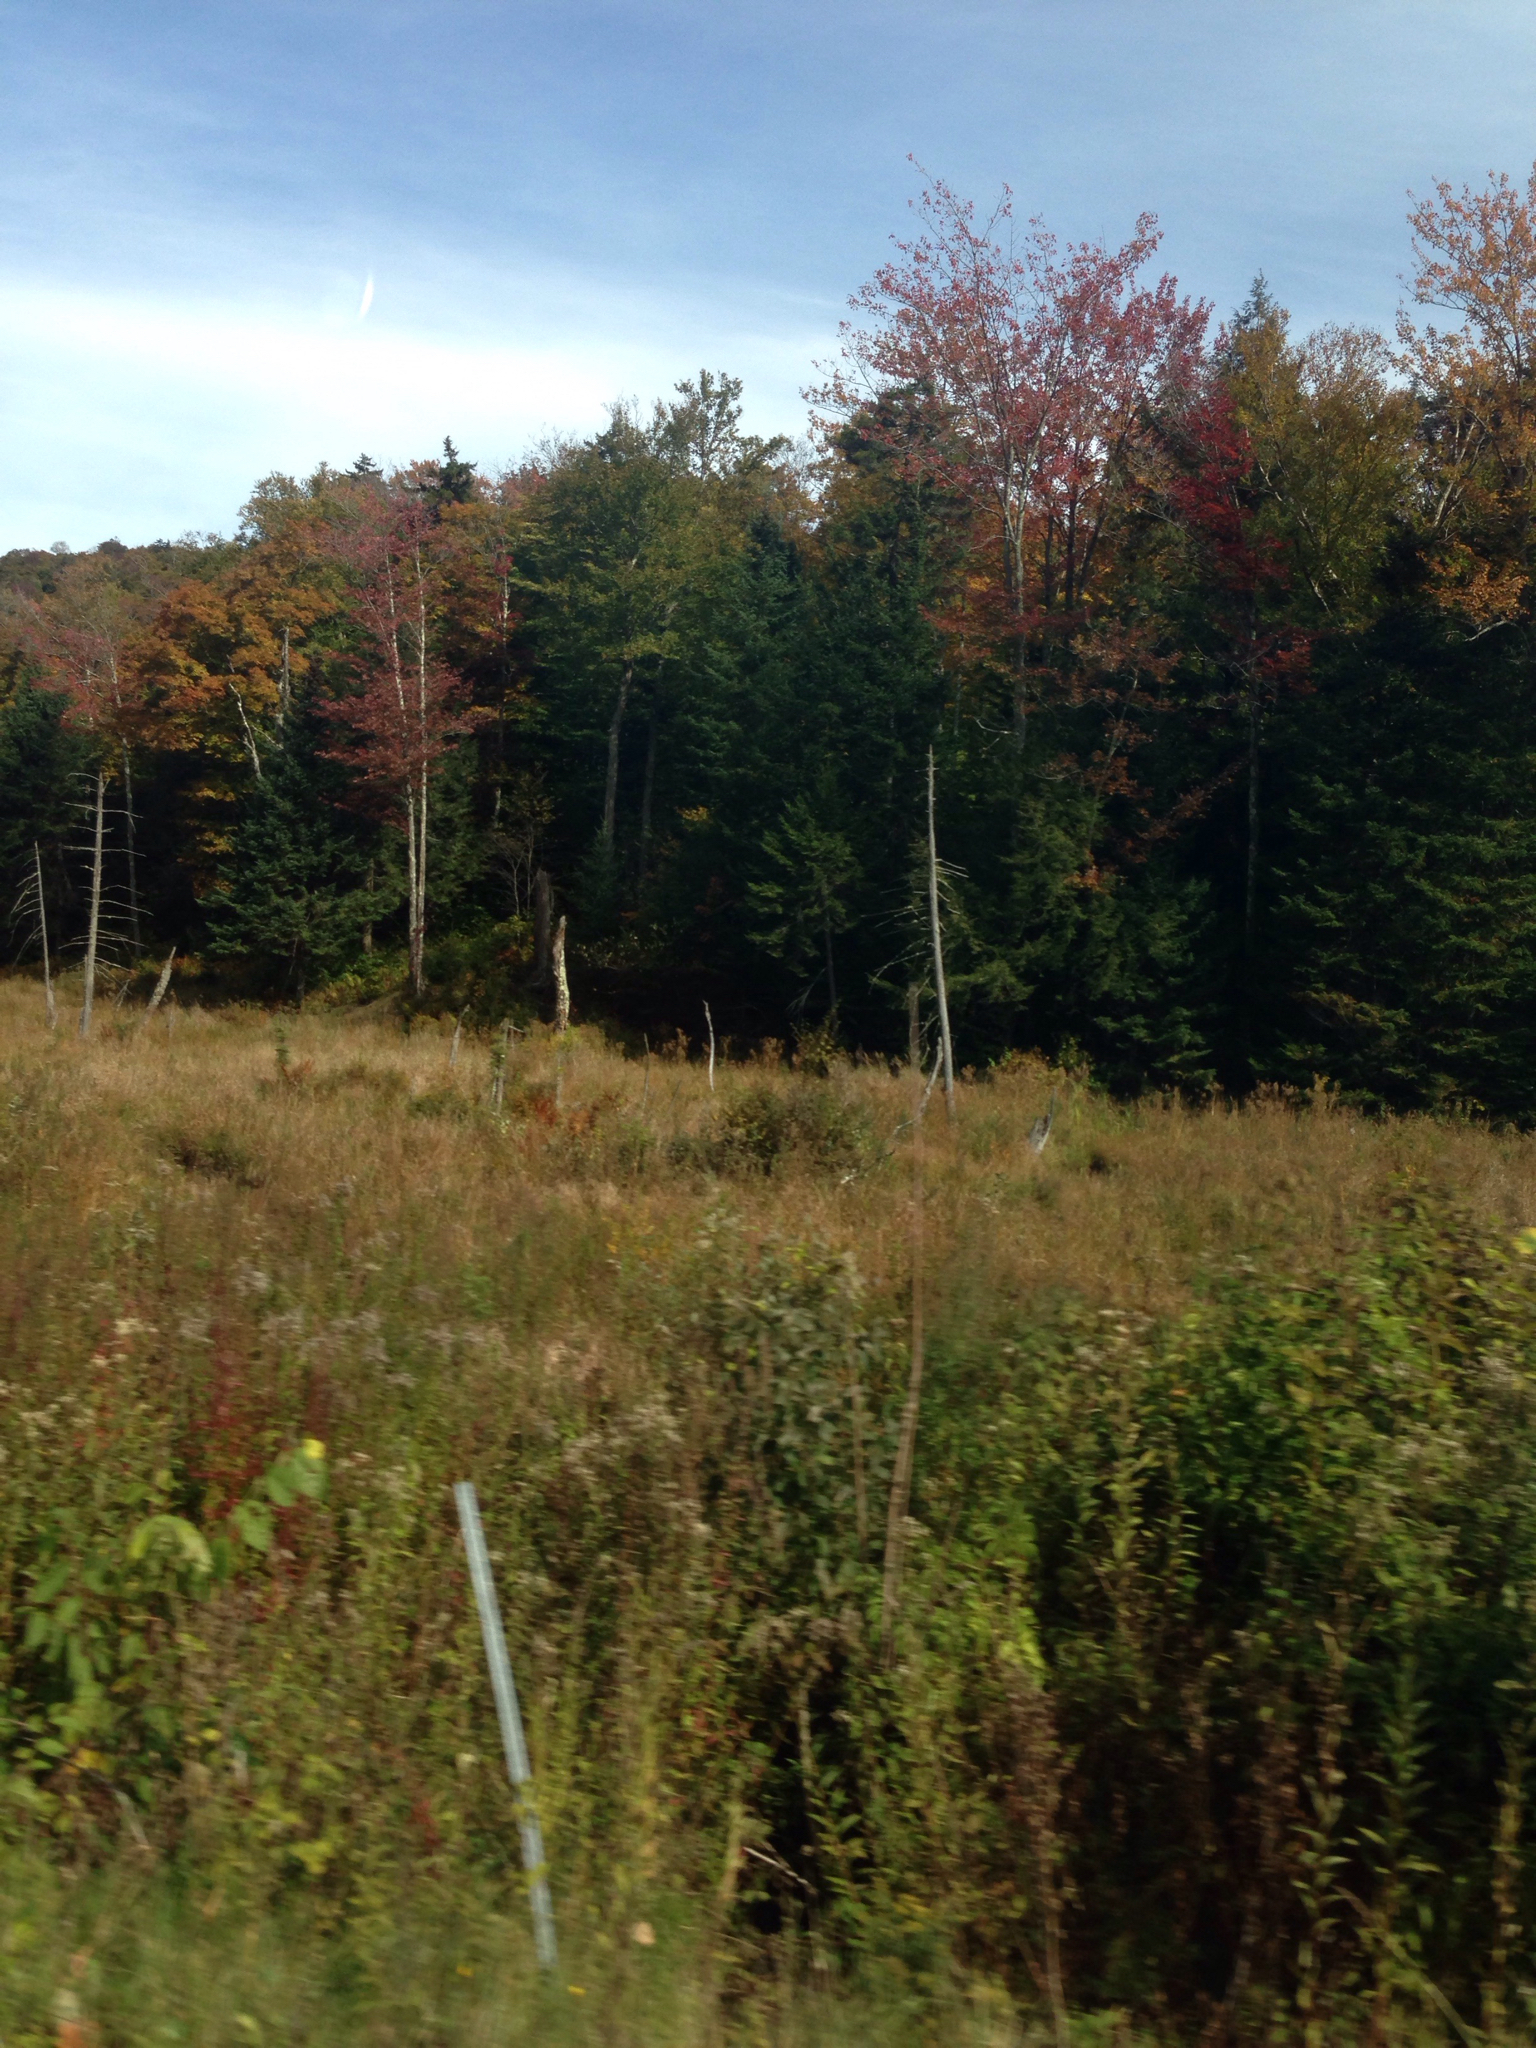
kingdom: Plantae
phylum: Tracheophyta
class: Magnoliopsida
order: Sapindales
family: Sapindaceae
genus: Acer
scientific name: Acer rubrum
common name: Red maple
